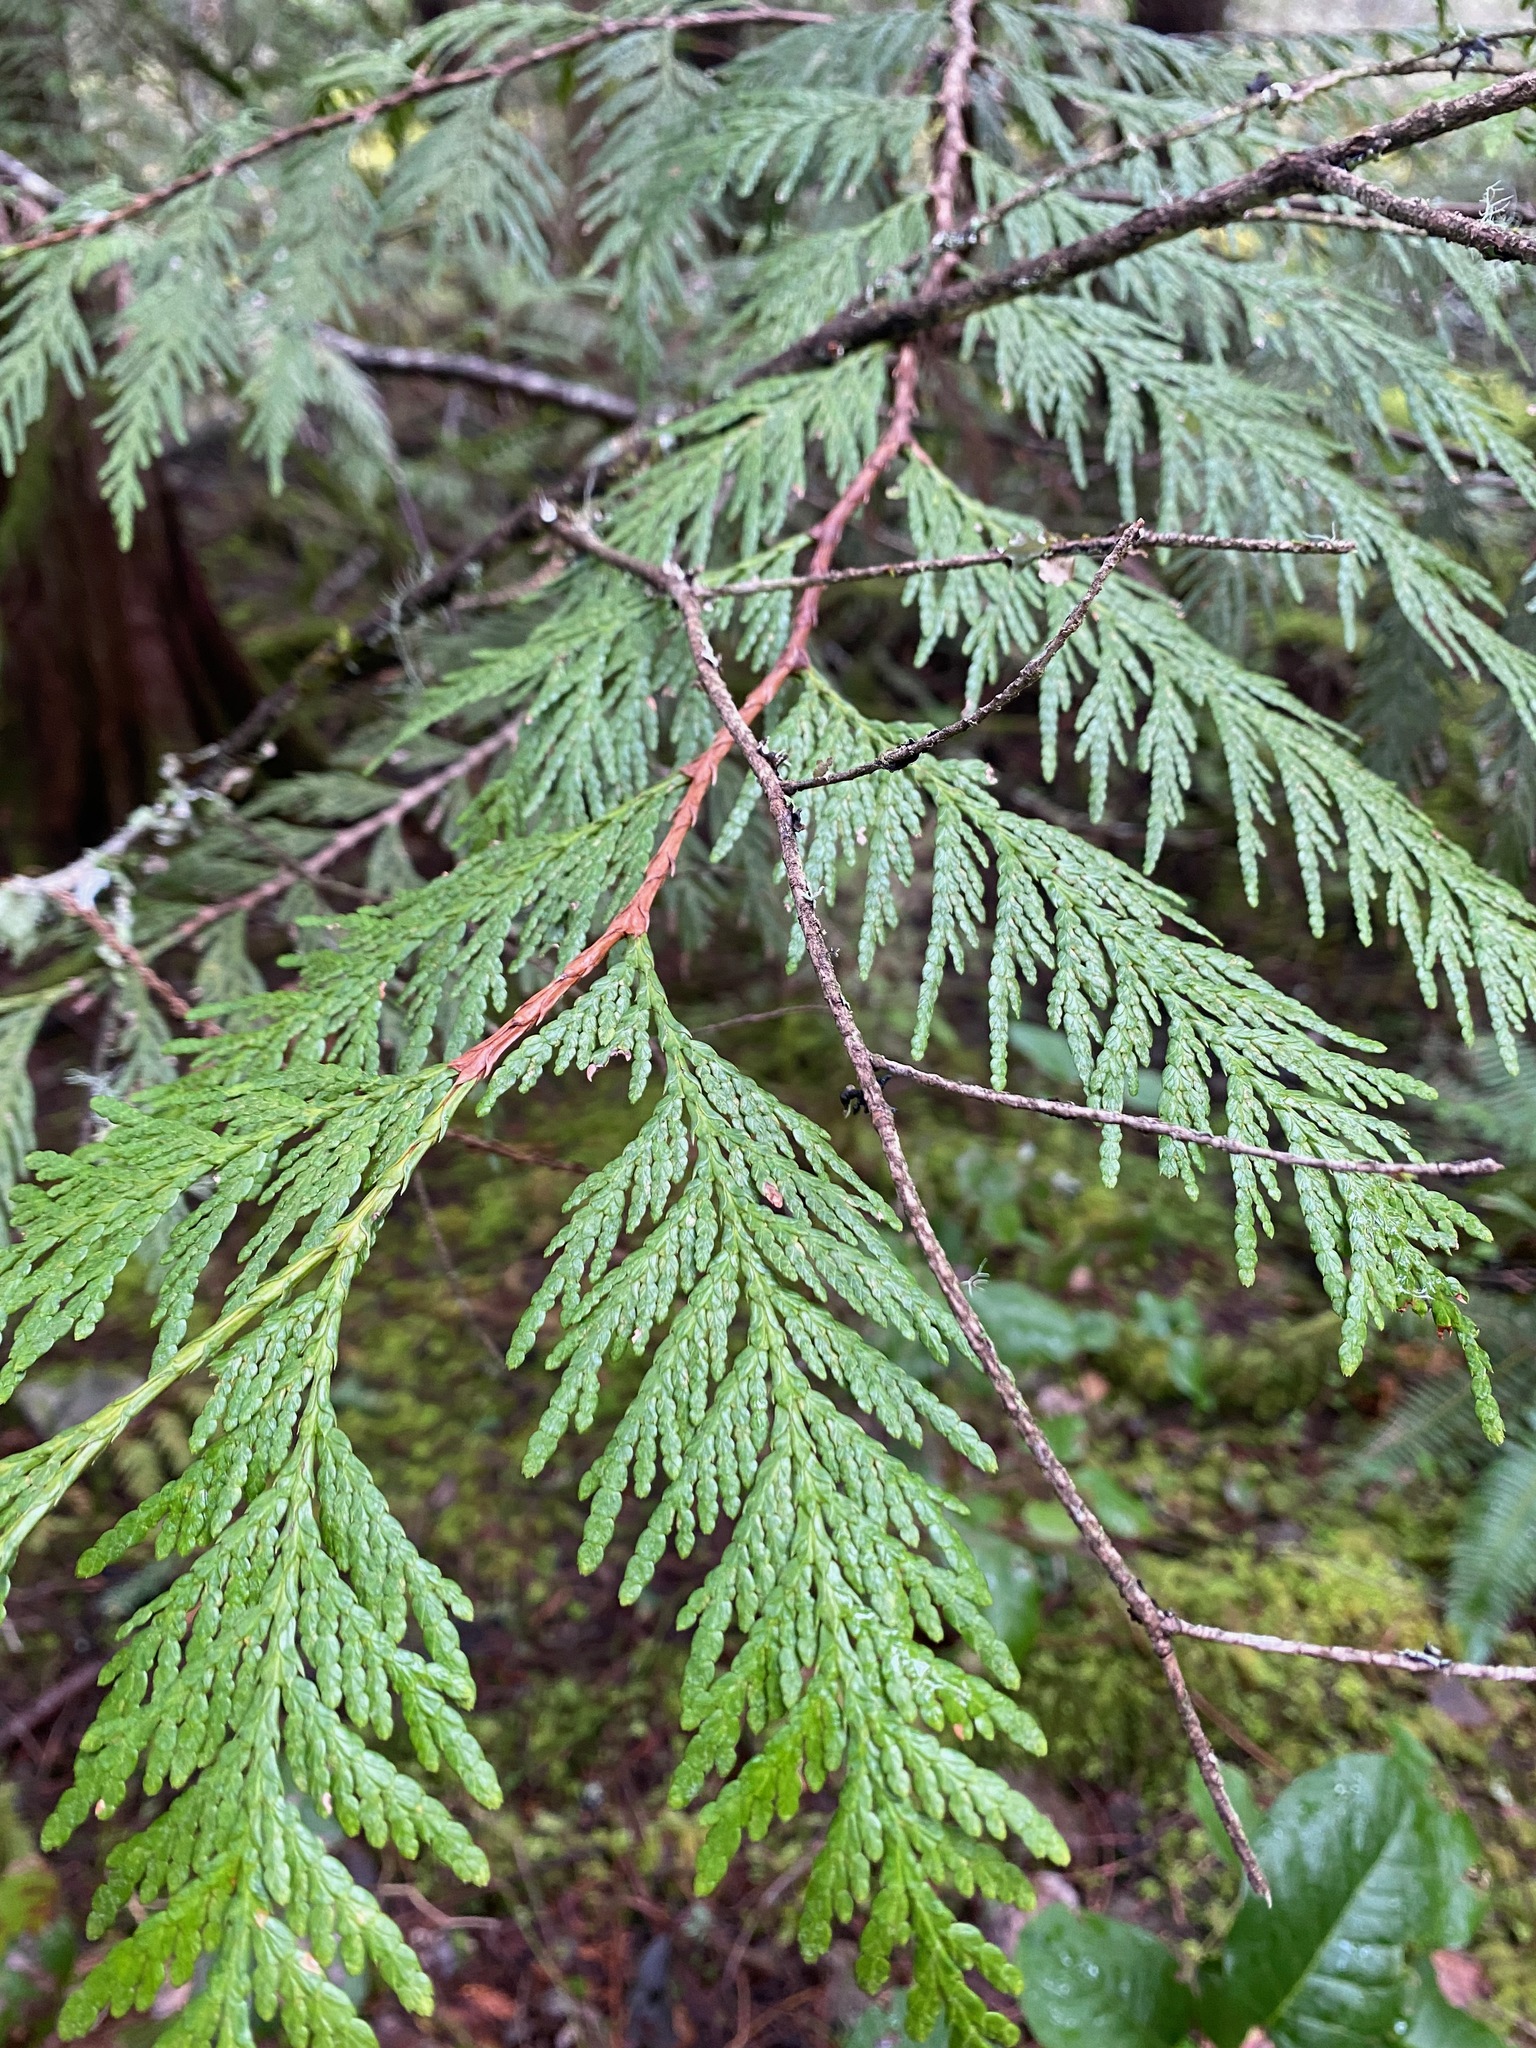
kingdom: Plantae
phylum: Tracheophyta
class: Pinopsida
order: Pinales
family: Cupressaceae
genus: Thuja
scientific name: Thuja plicata
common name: Western red-cedar
